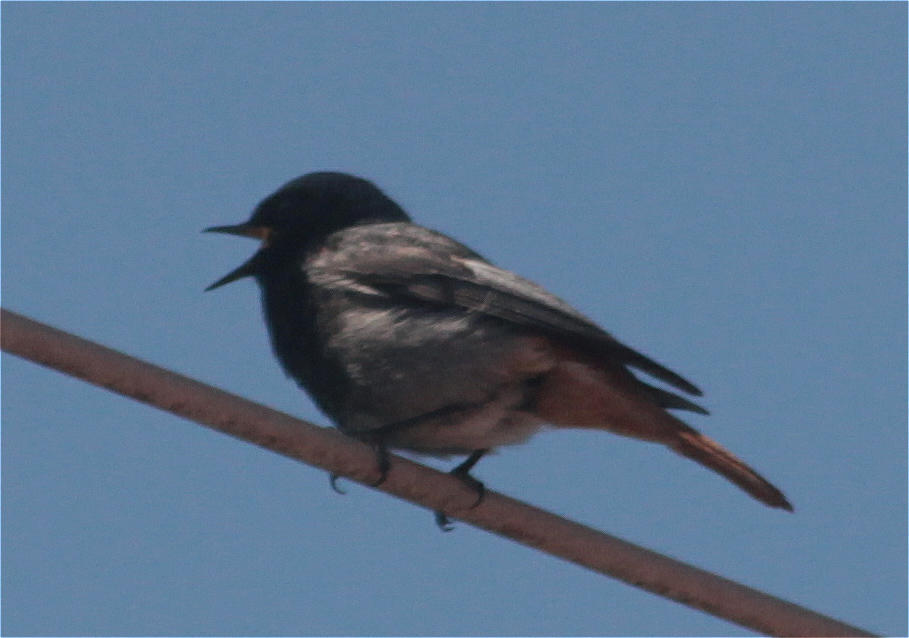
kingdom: Animalia
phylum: Chordata
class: Aves
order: Passeriformes
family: Muscicapidae
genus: Phoenicurus
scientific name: Phoenicurus ochruros
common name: Black redstart
